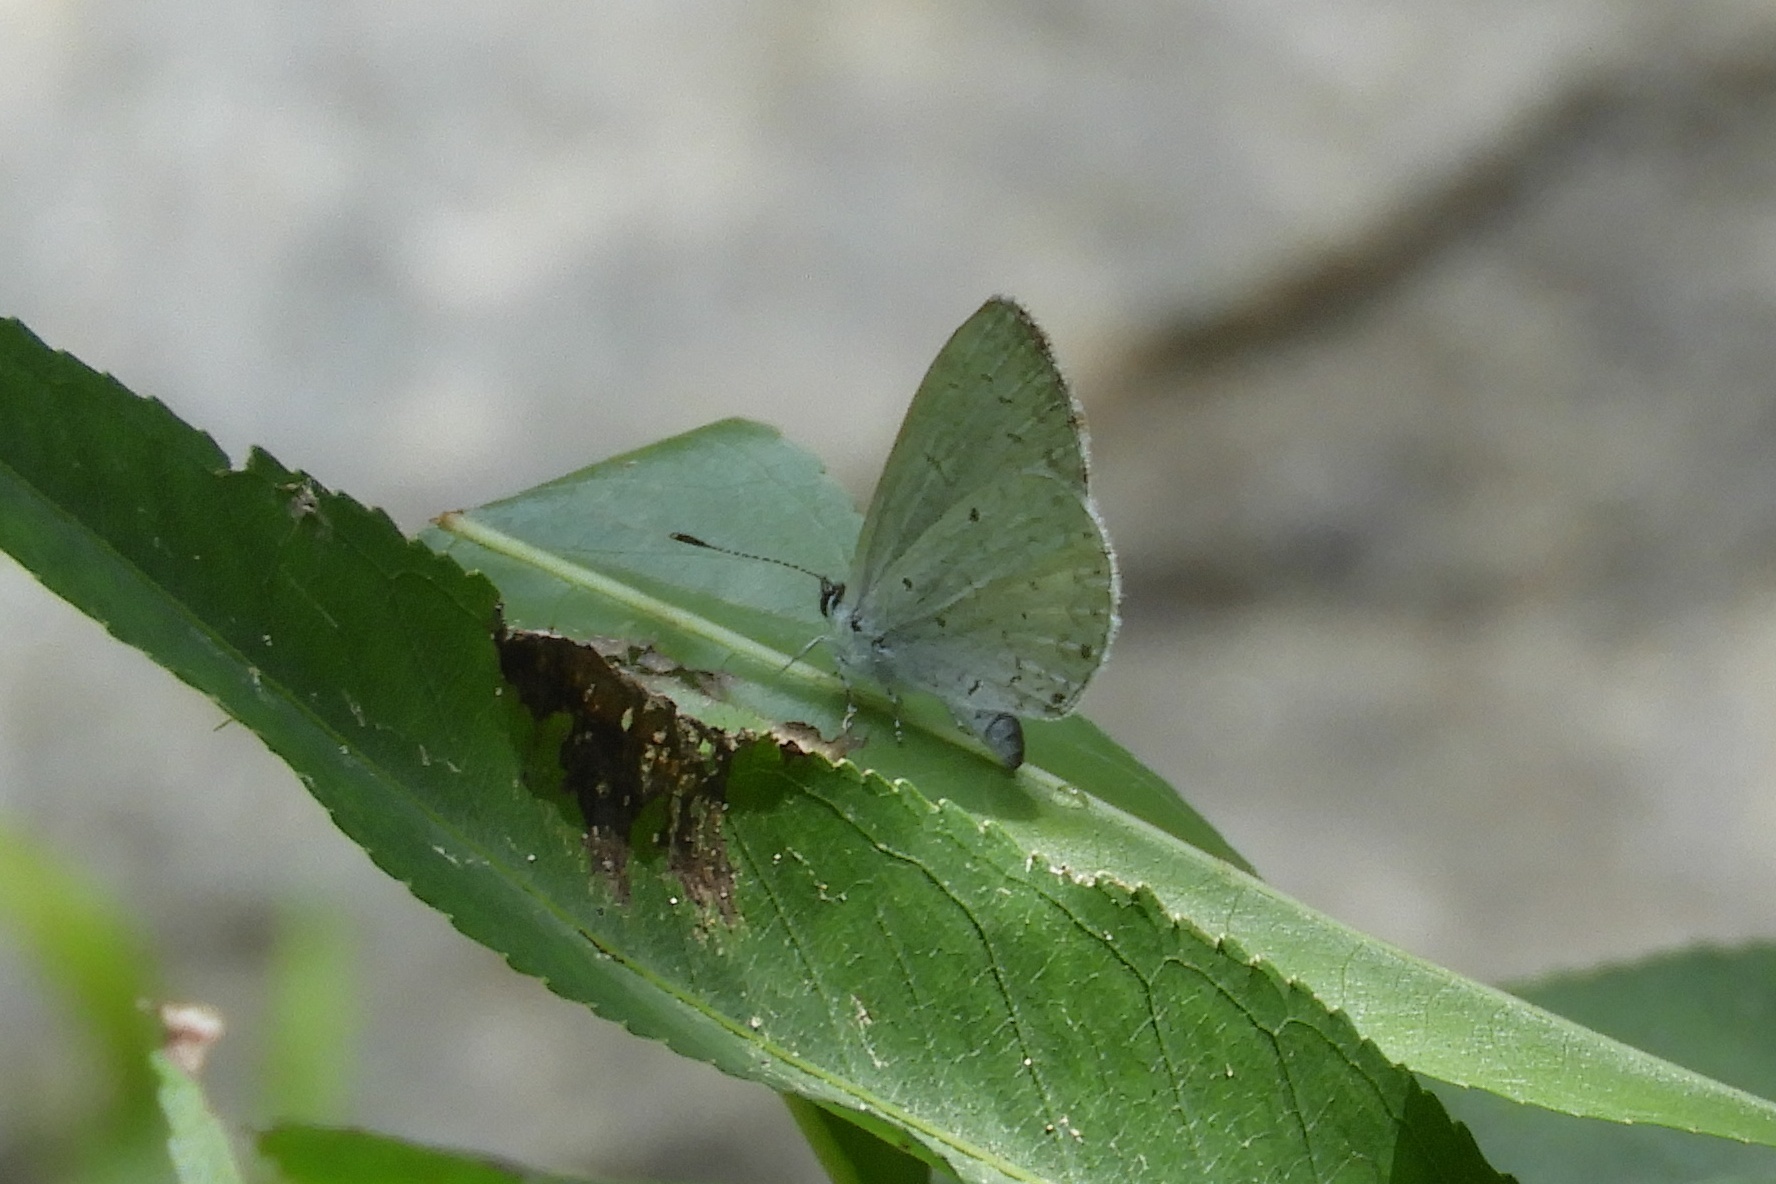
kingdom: Animalia
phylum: Arthropoda
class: Insecta
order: Lepidoptera
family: Lycaenidae
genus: Cyaniris
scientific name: Cyaniris neglecta
